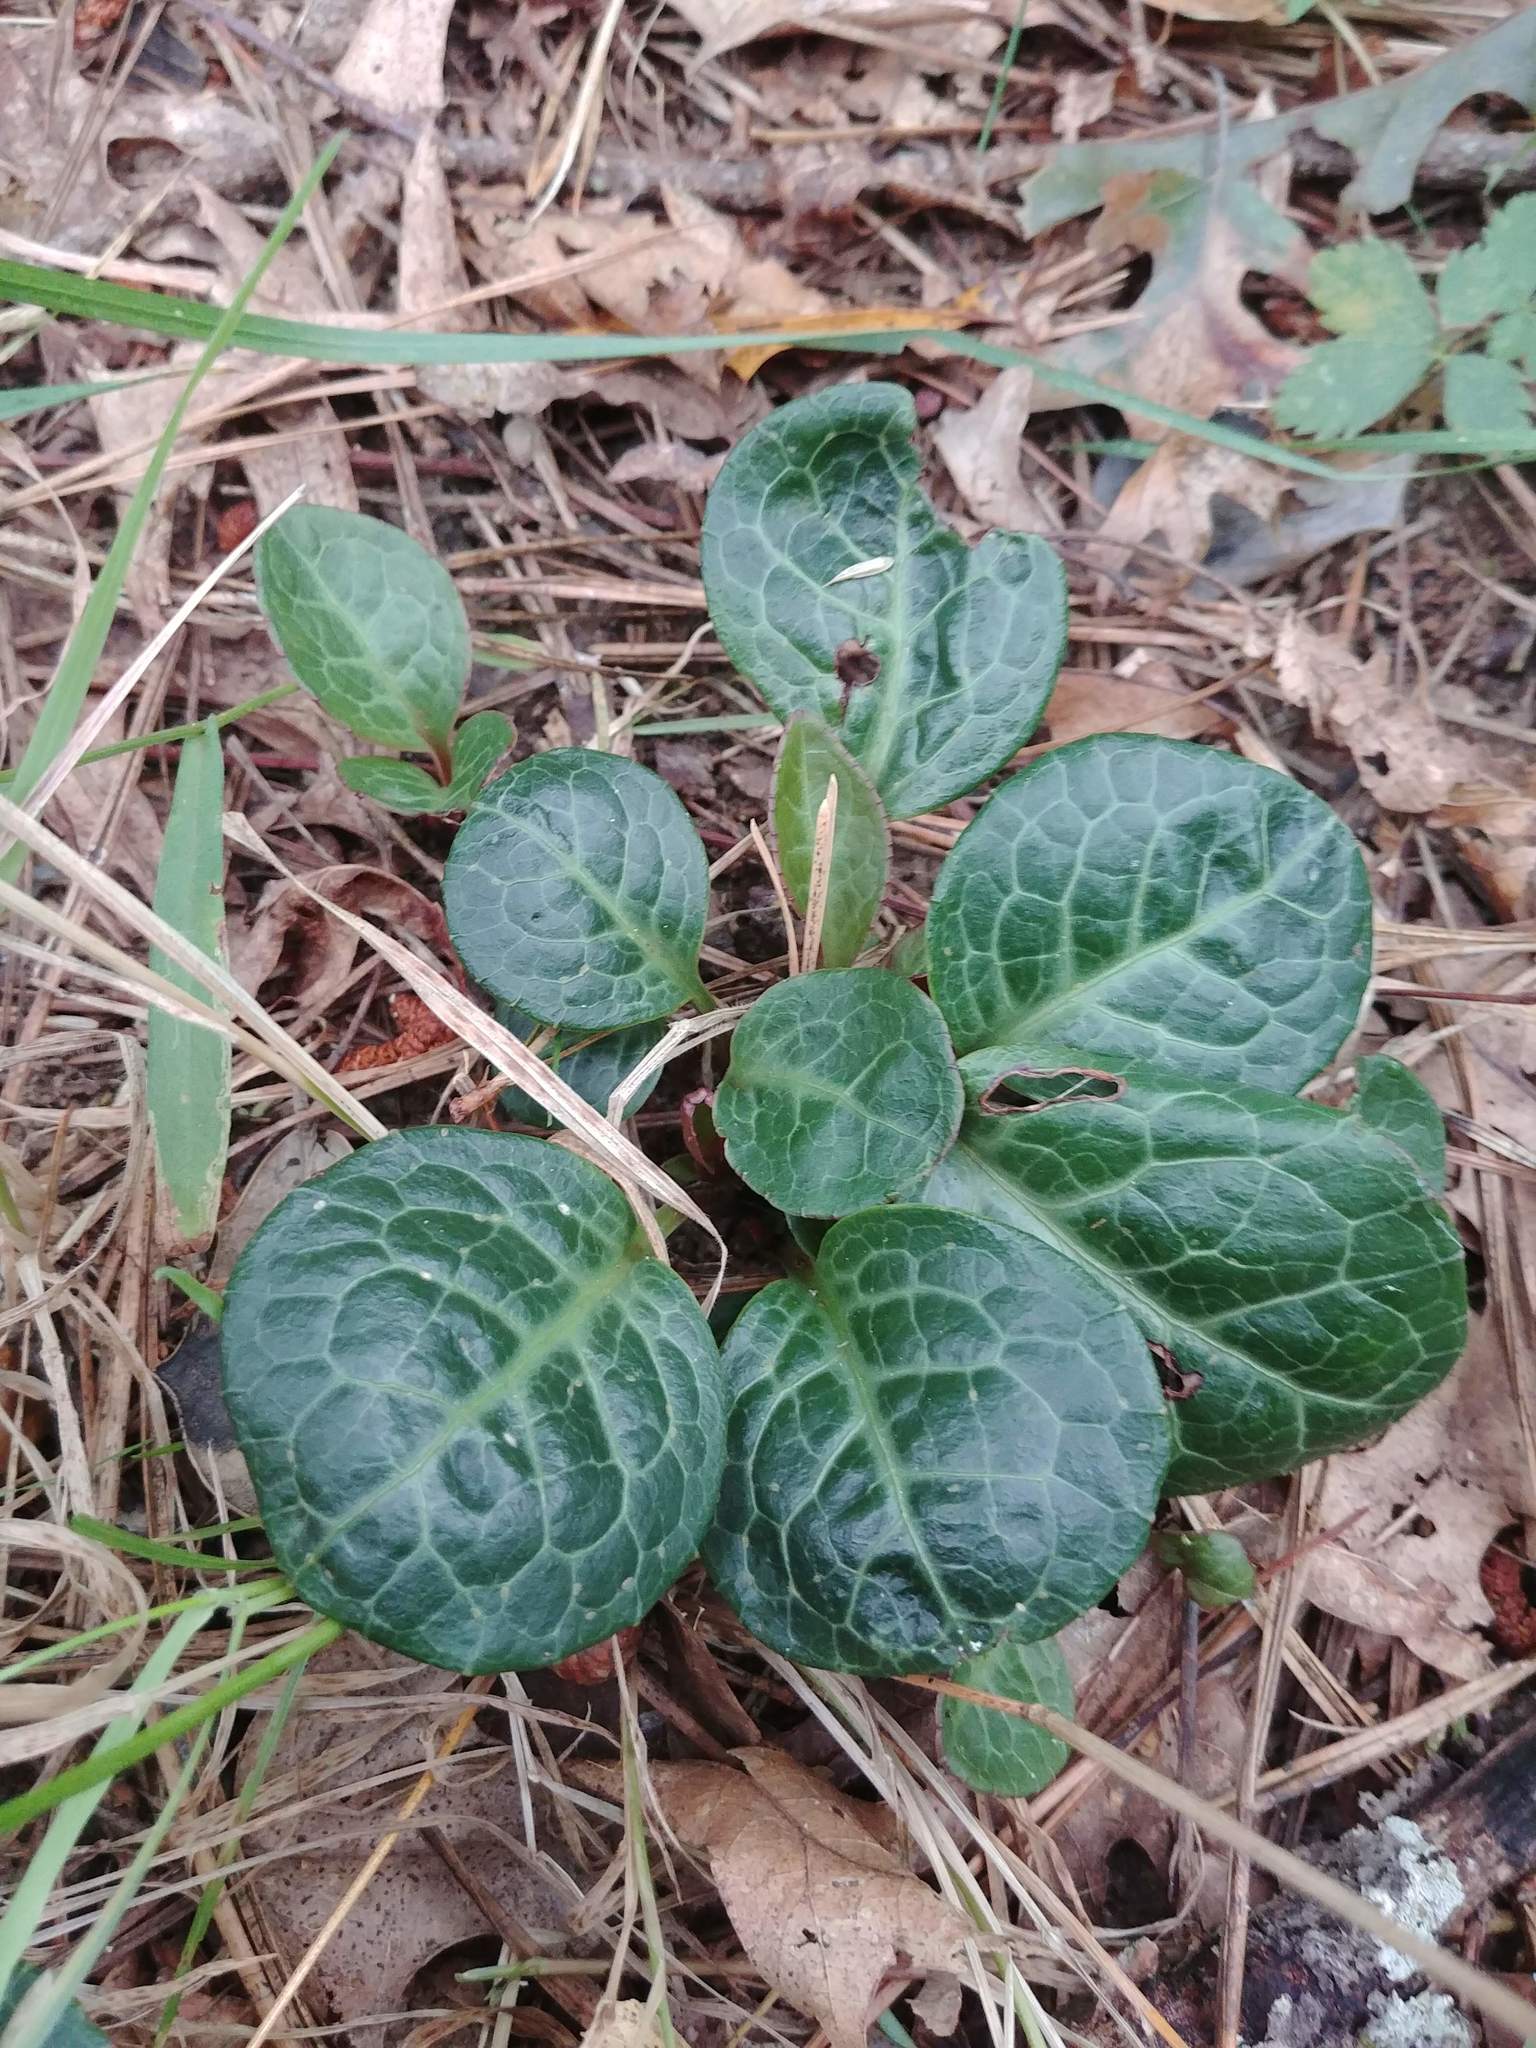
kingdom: Plantae
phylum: Tracheophyta
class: Magnoliopsida
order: Ericales
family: Ericaceae
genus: Pyrola
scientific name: Pyrola americana
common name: American wintergreen
